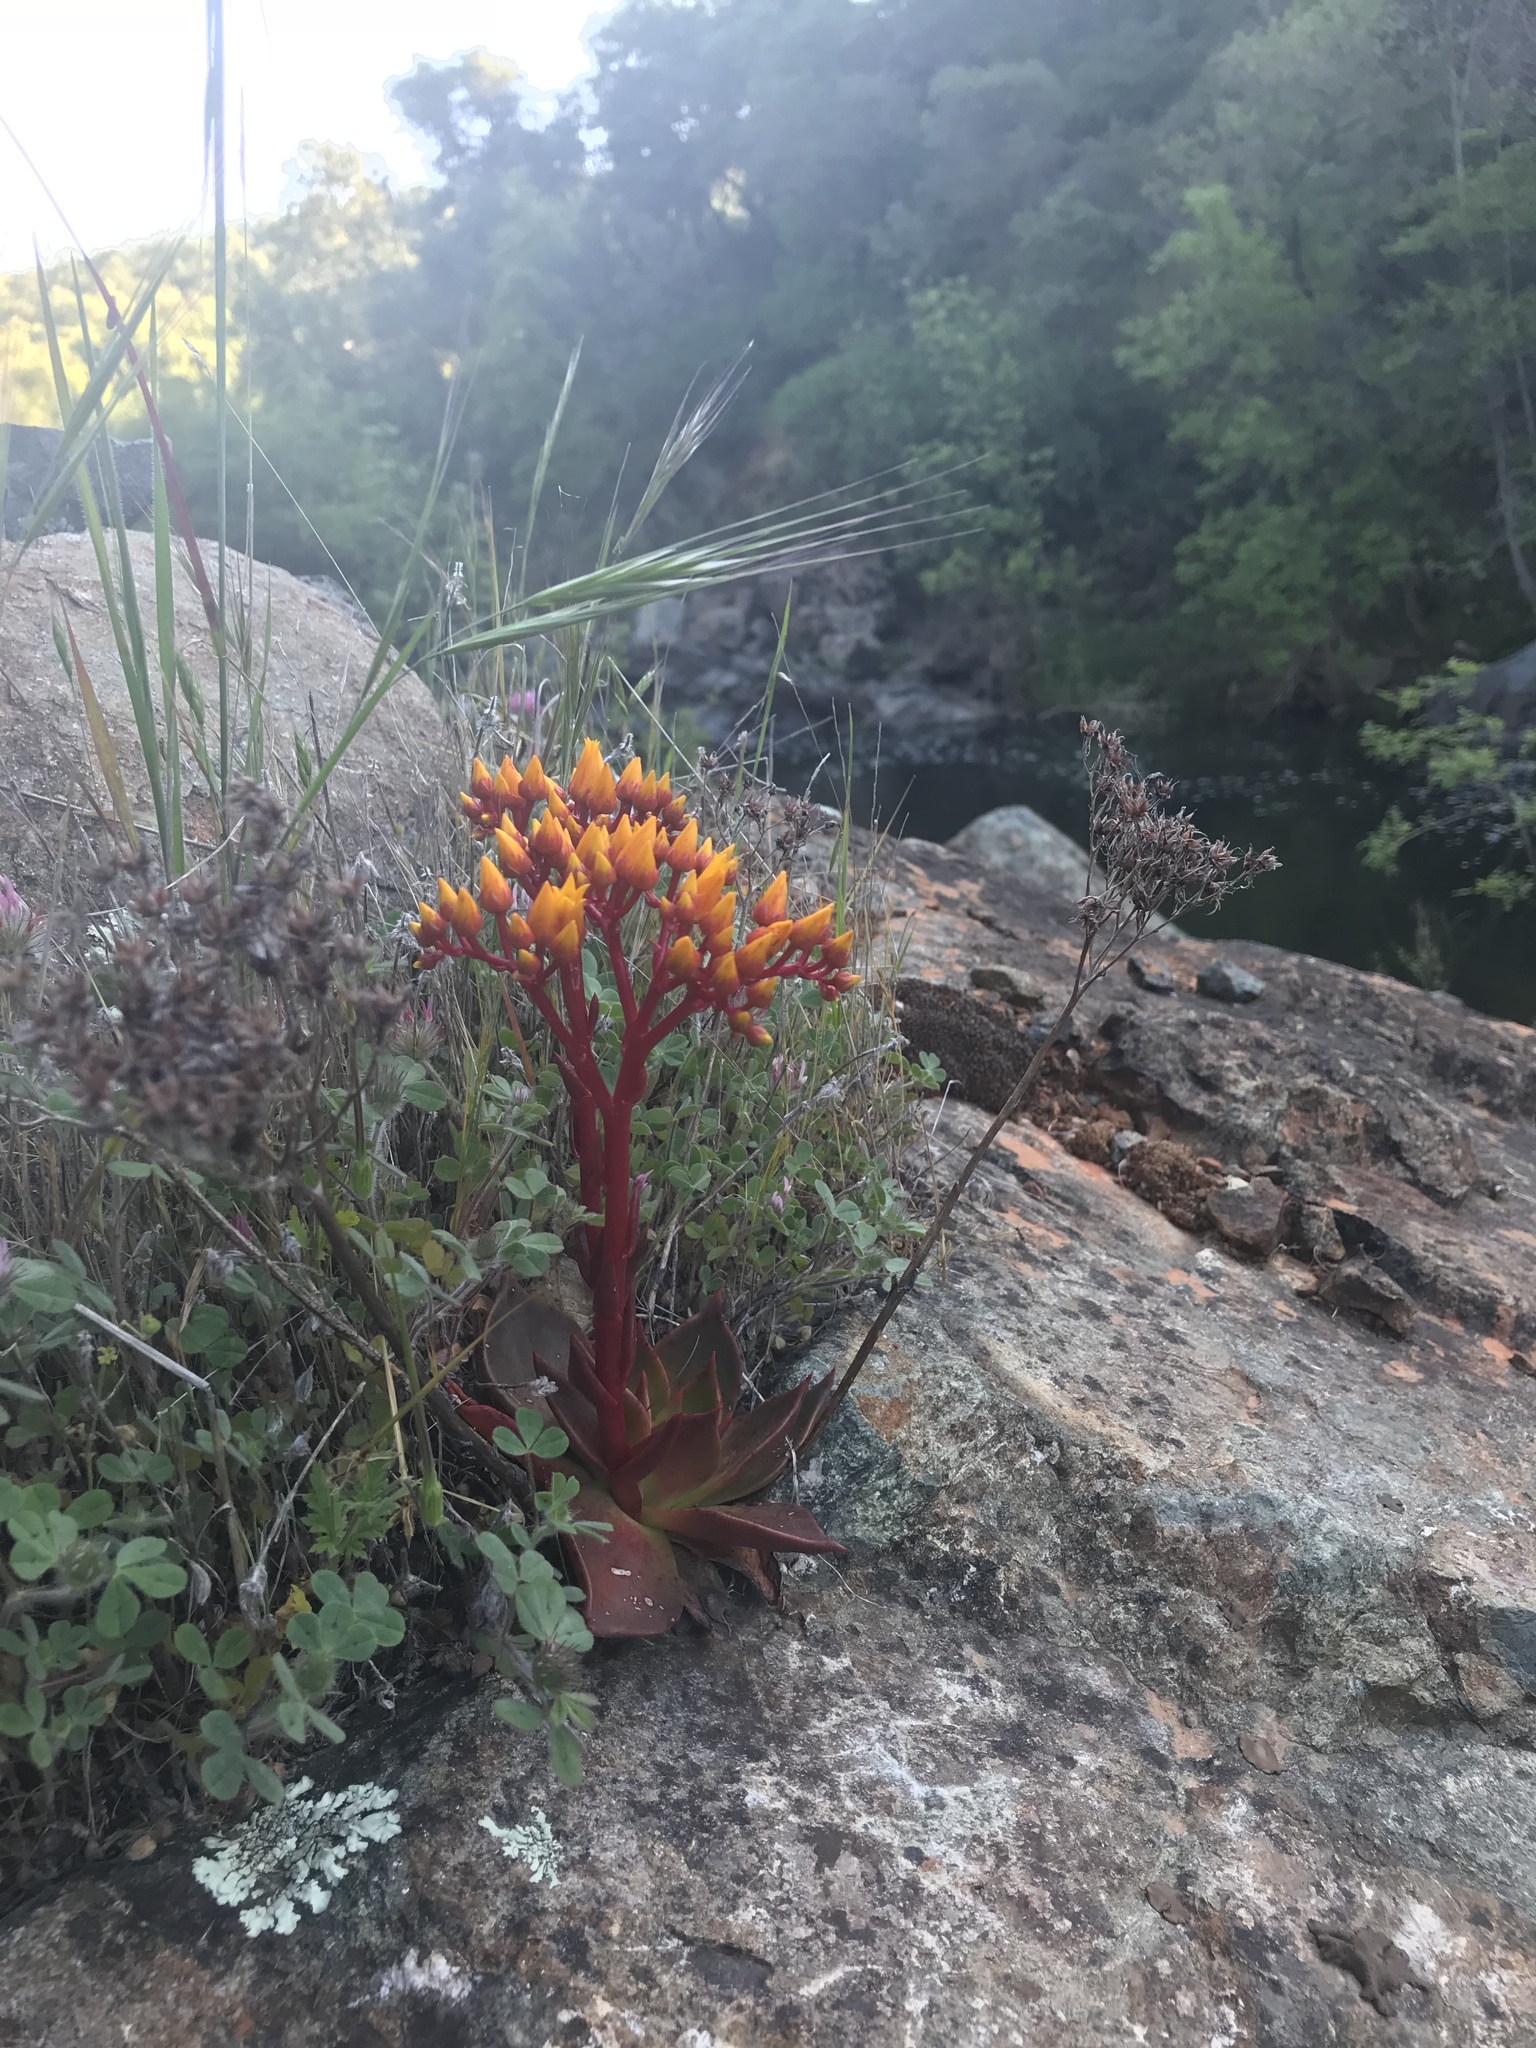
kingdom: Plantae
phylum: Tracheophyta
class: Magnoliopsida
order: Saxifragales
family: Crassulaceae
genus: Dudleya
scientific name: Dudleya cymosa
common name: Canyon dudleya
